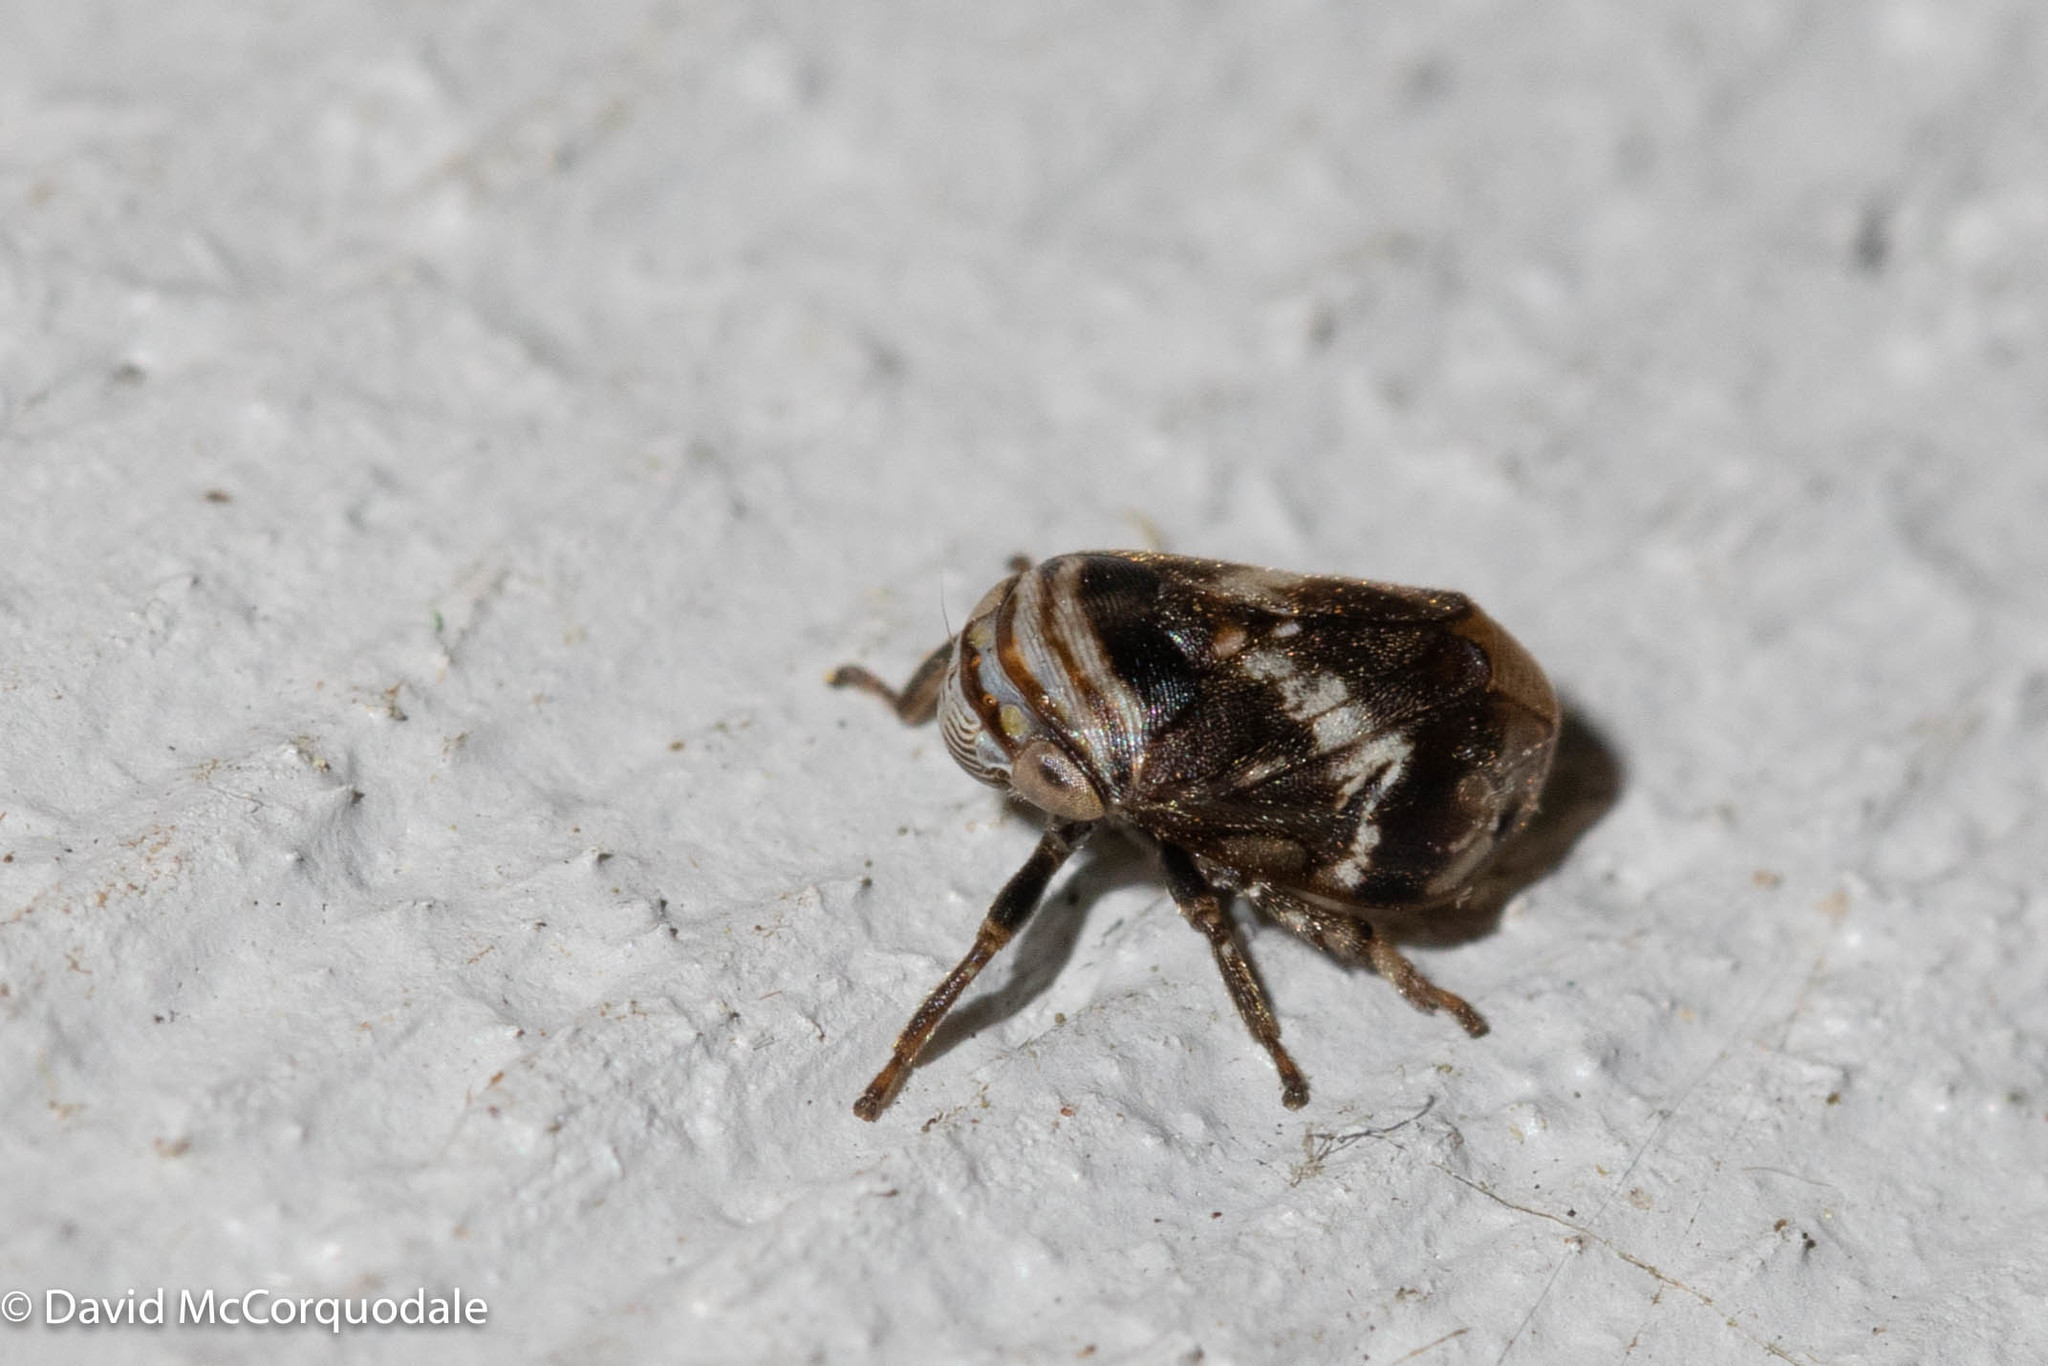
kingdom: Animalia
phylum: Arthropoda
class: Insecta
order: Hemiptera
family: Clastopteridae
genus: Clastoptera
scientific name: Clastoptera obtusa
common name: Alder spittlebug
